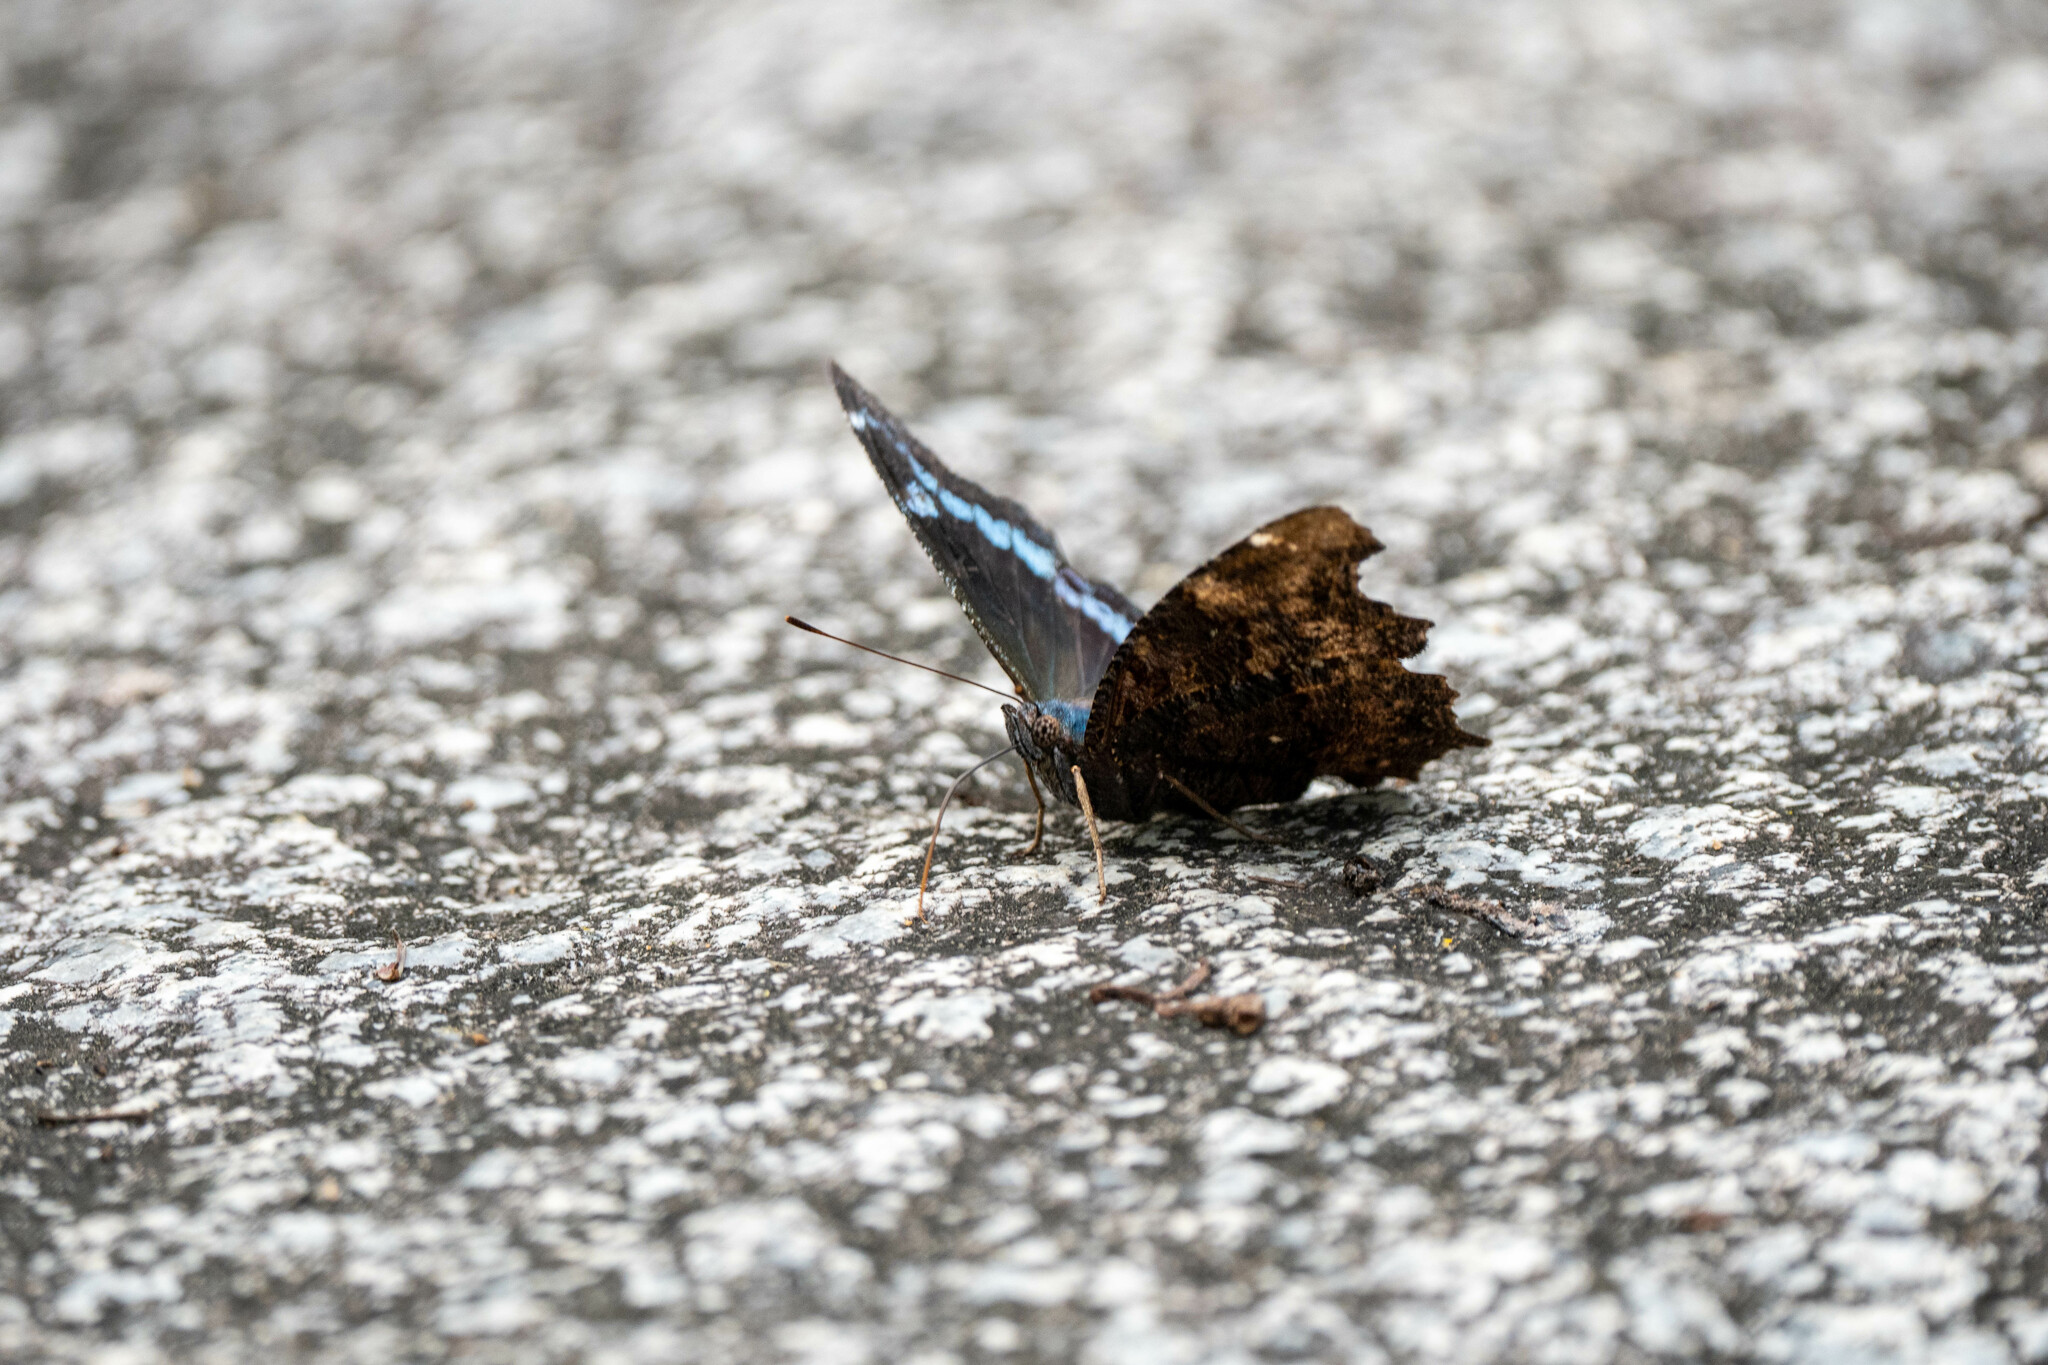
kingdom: Animalia
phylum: Arthropoda
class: Insecta
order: Lepidoptera
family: Nymphalidae
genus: Vanessa
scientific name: Vanessa Kaniska canace
